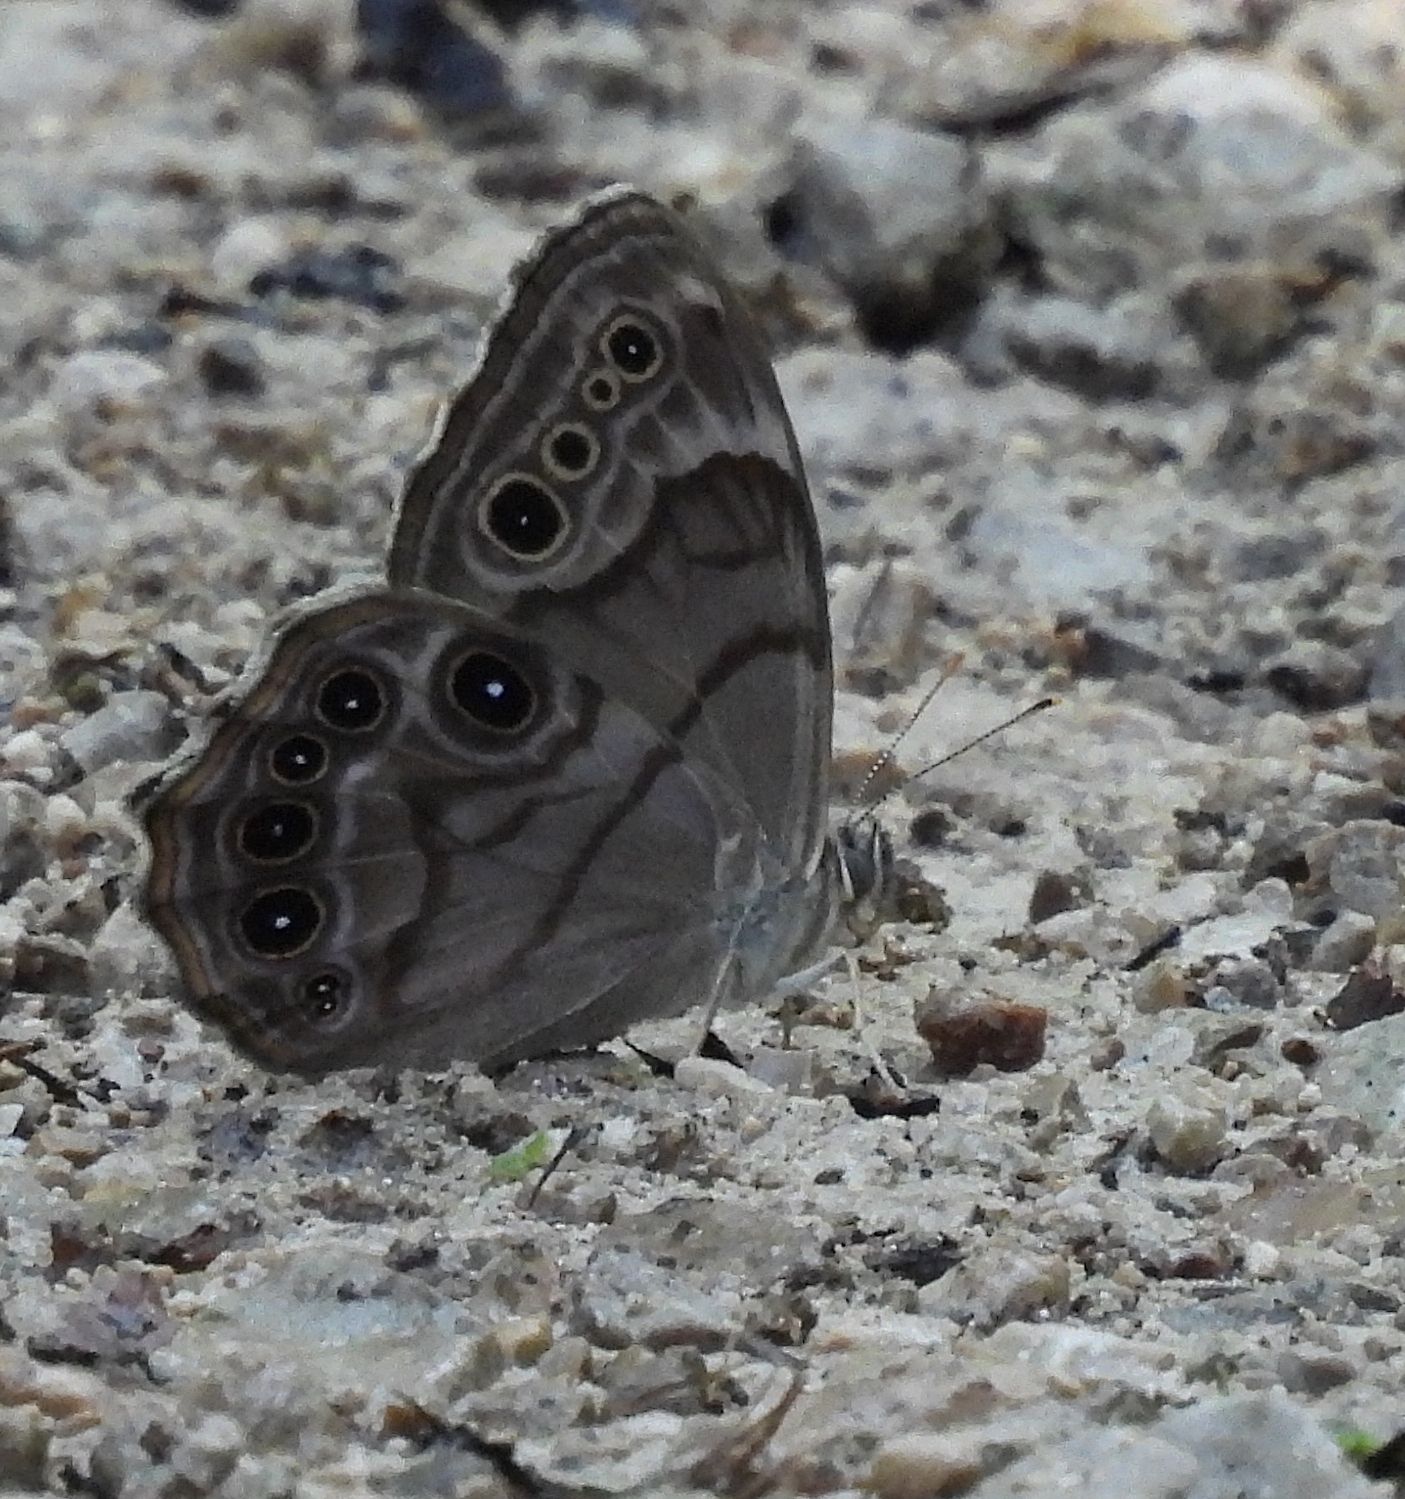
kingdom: Animalia
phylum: Arthropoda
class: Insecta
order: Lepidoptera
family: Nymphalidae
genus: Lethe
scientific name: Lethe anthedon
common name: Northern pearly-eye
